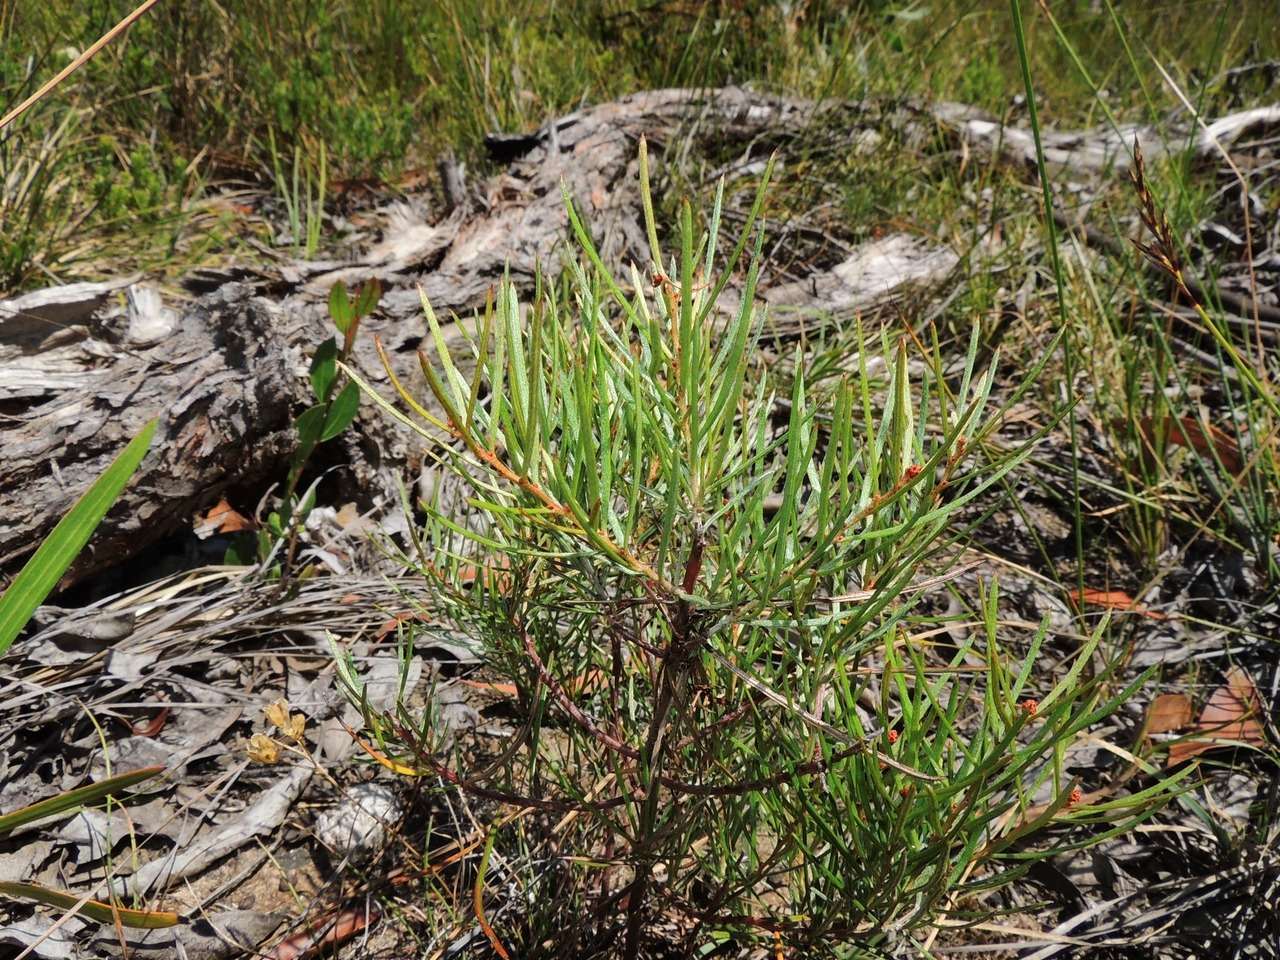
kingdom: Plantae
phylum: Tracheophyta
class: Magnoliopsida
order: Proteales
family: Proteaceae
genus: Grevillea
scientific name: Grevillea micrantha
